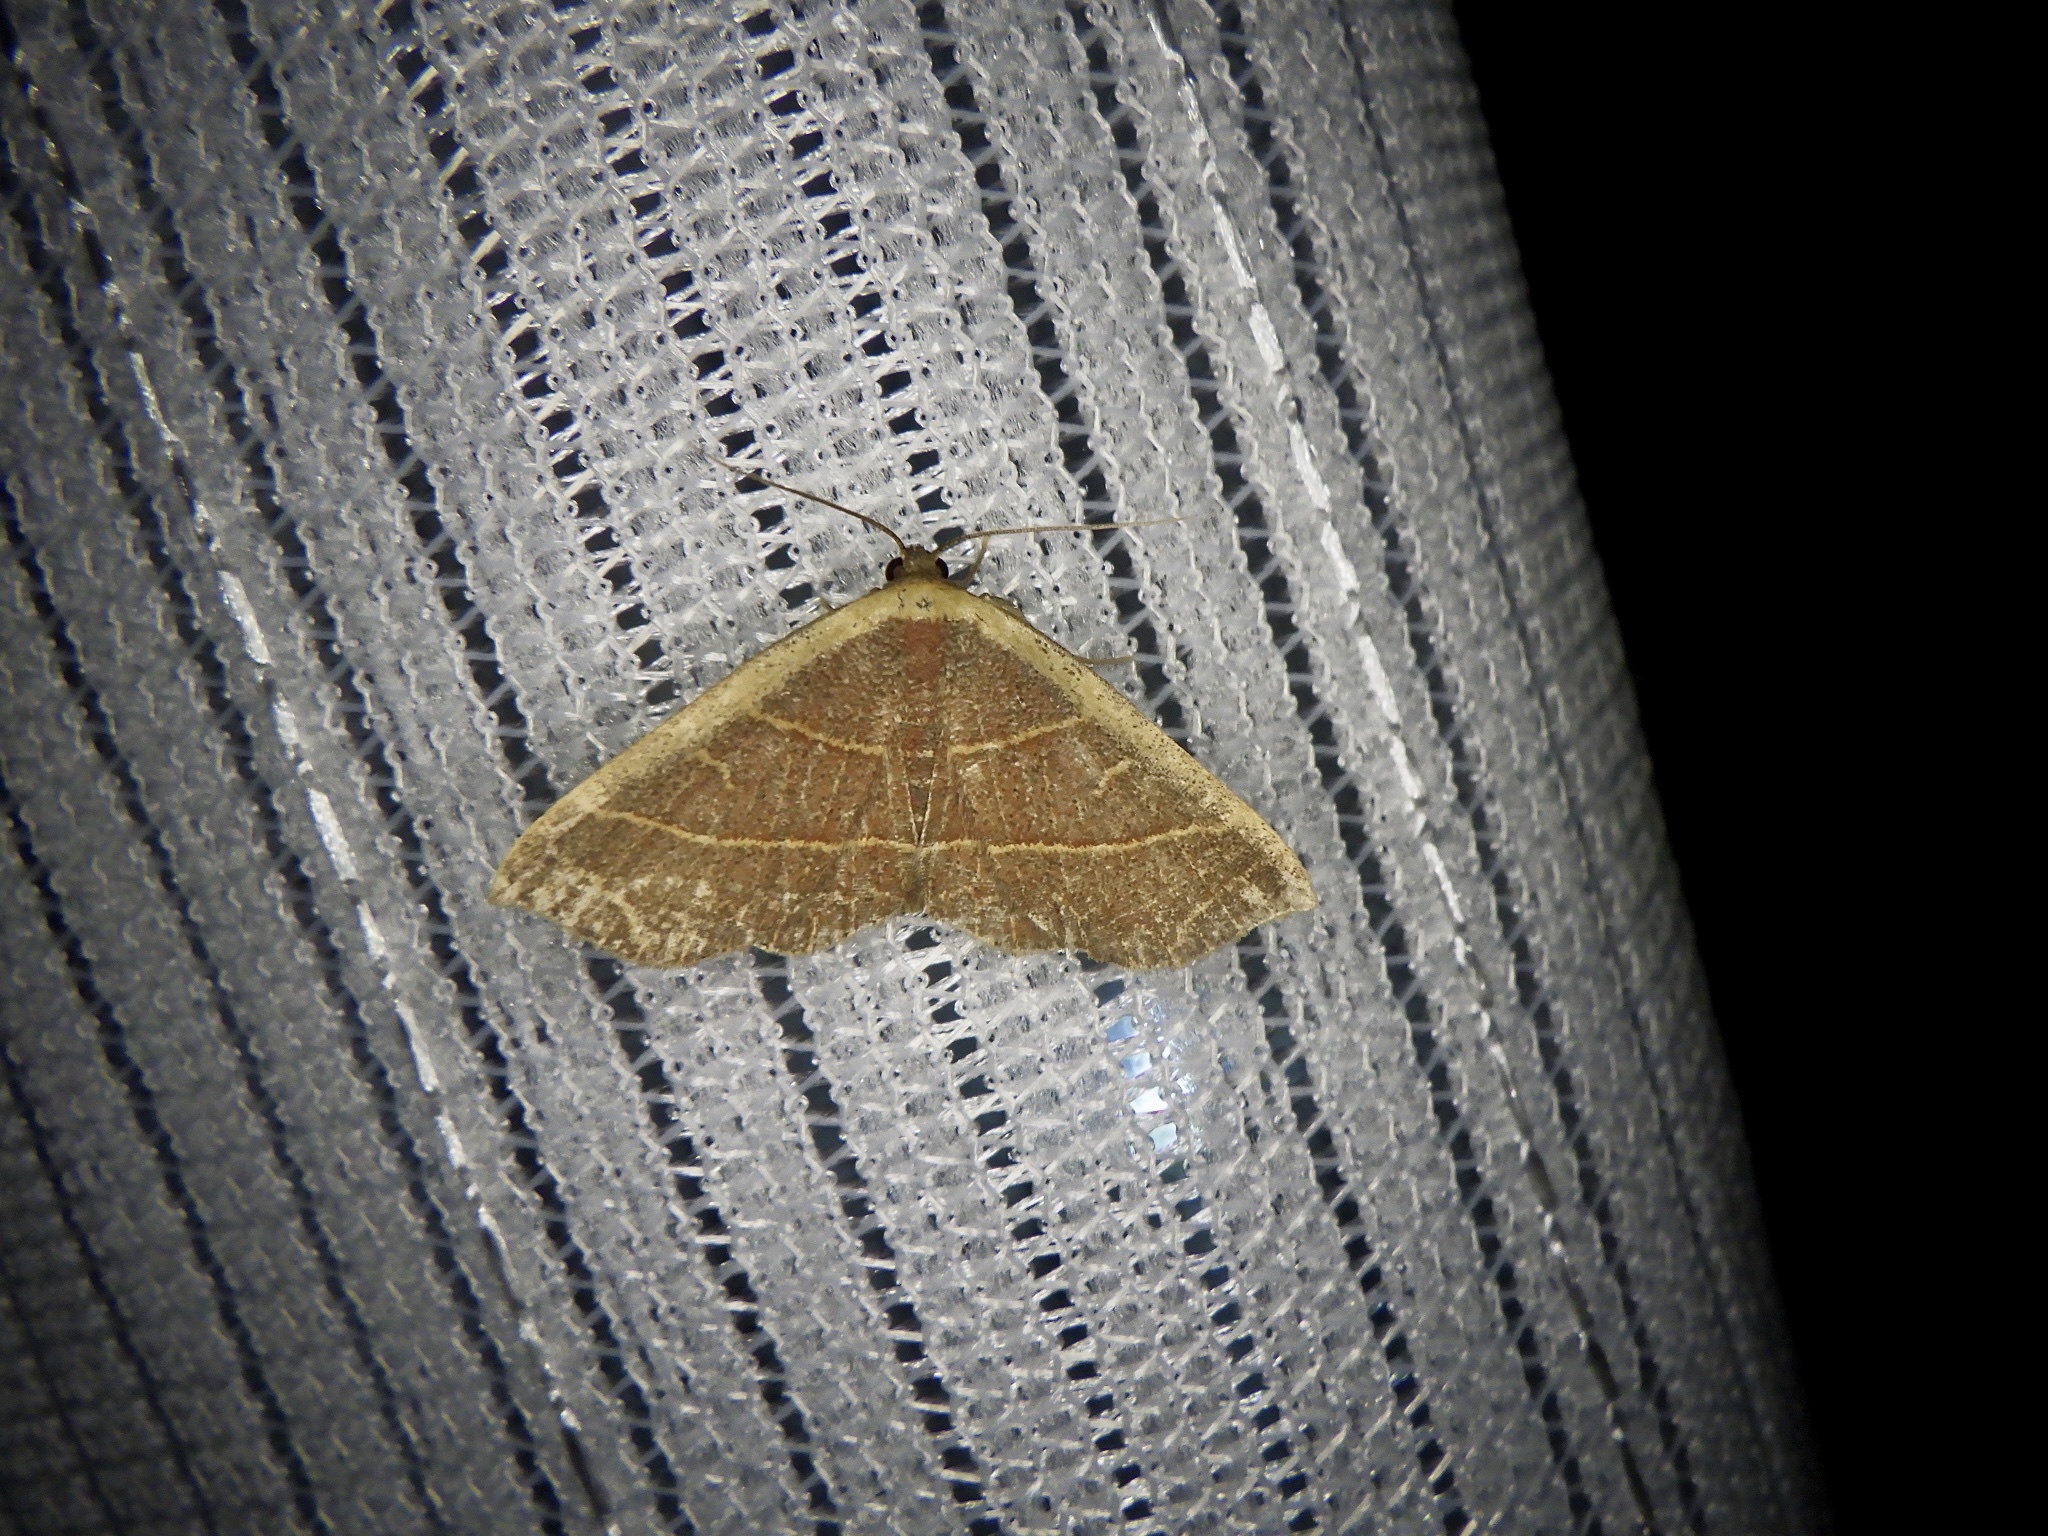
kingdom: Animalia
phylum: Arthropoda
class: Insecta
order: Lepidoptera
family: Noctuidae
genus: Oruza
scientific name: Oruza mira
